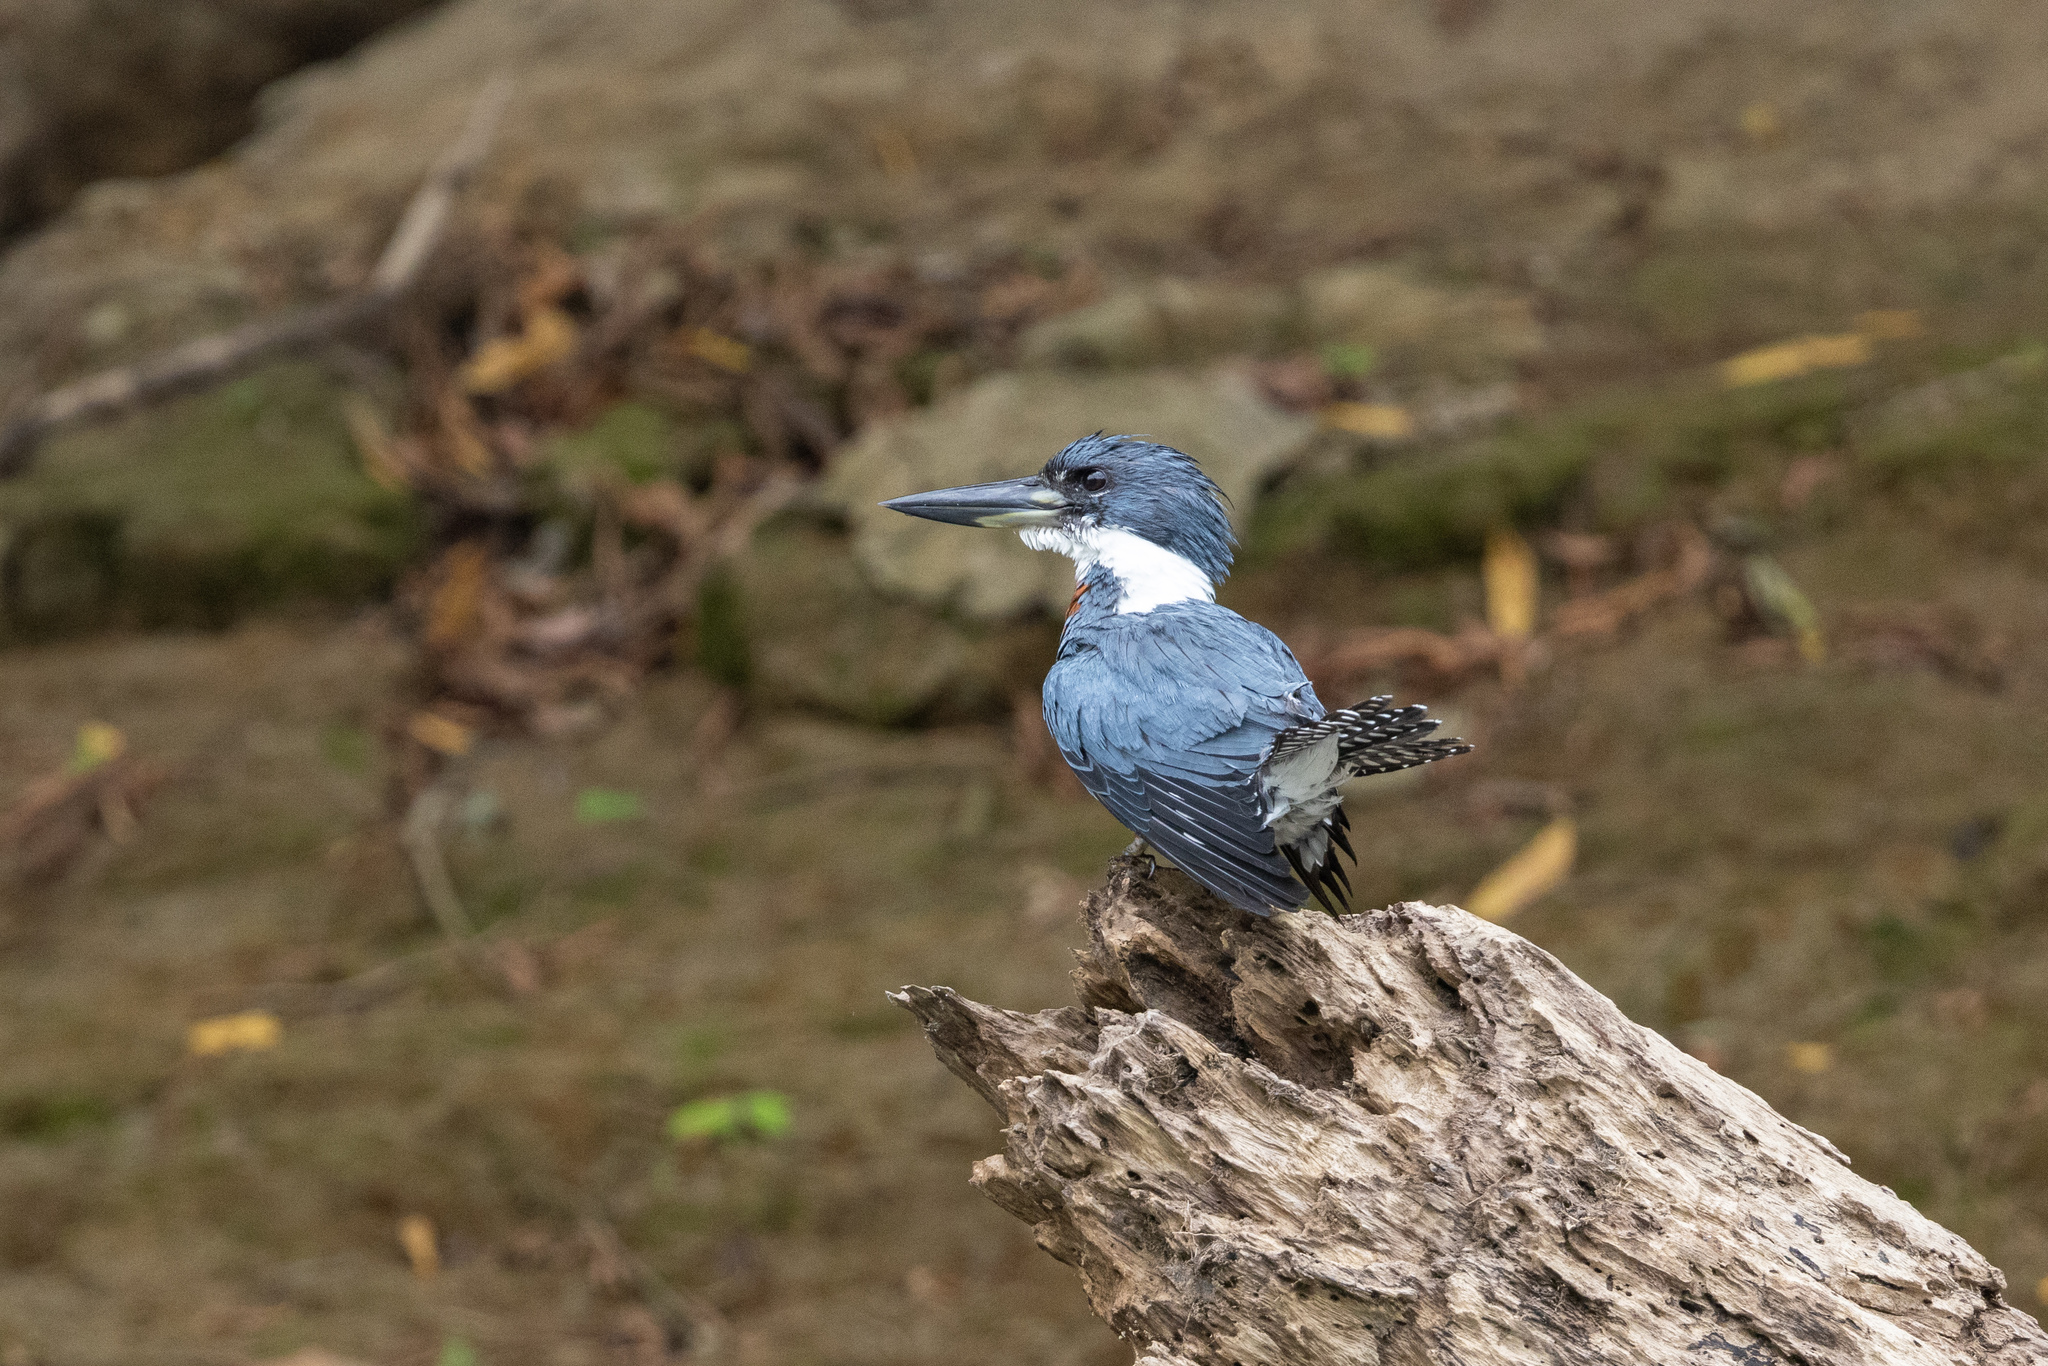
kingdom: Animalia
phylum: Chordata
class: Aves
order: Coraciiformes
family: Alcedinidae
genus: Megaceryle
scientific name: Megaceryle torquata
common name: Ringed kingfisher
